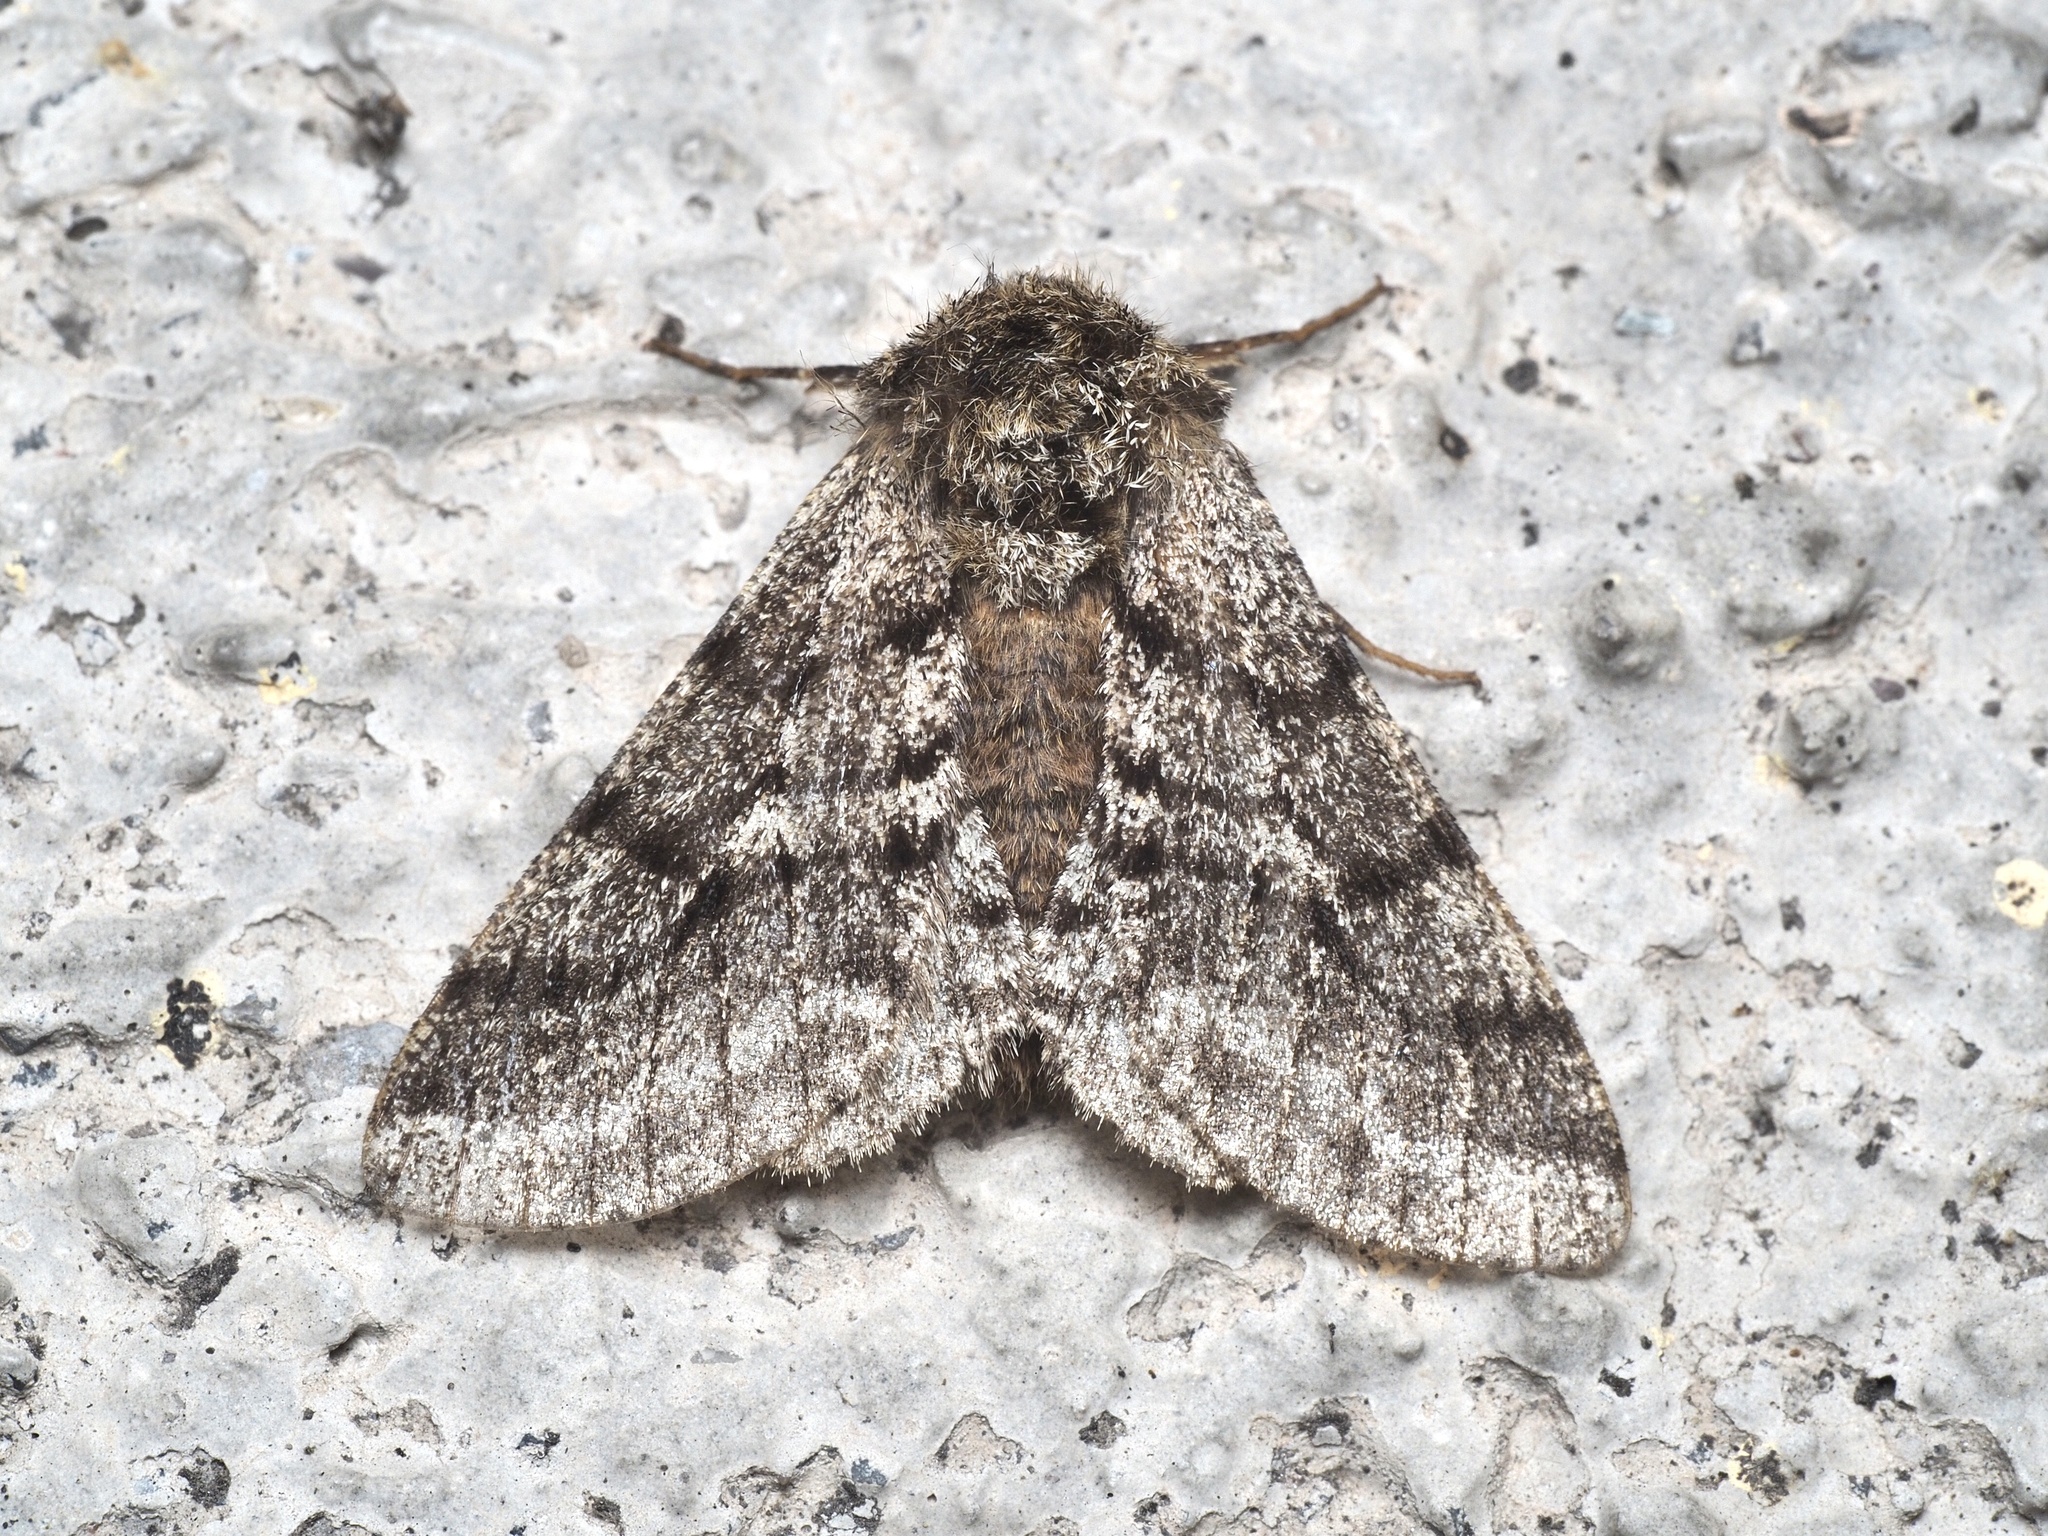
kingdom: Animalia
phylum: Arthropoda
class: Insecta
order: Lepidoptera
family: Geometridae
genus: Lycia
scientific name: Lycia hirtaria
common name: Brindled beauty
